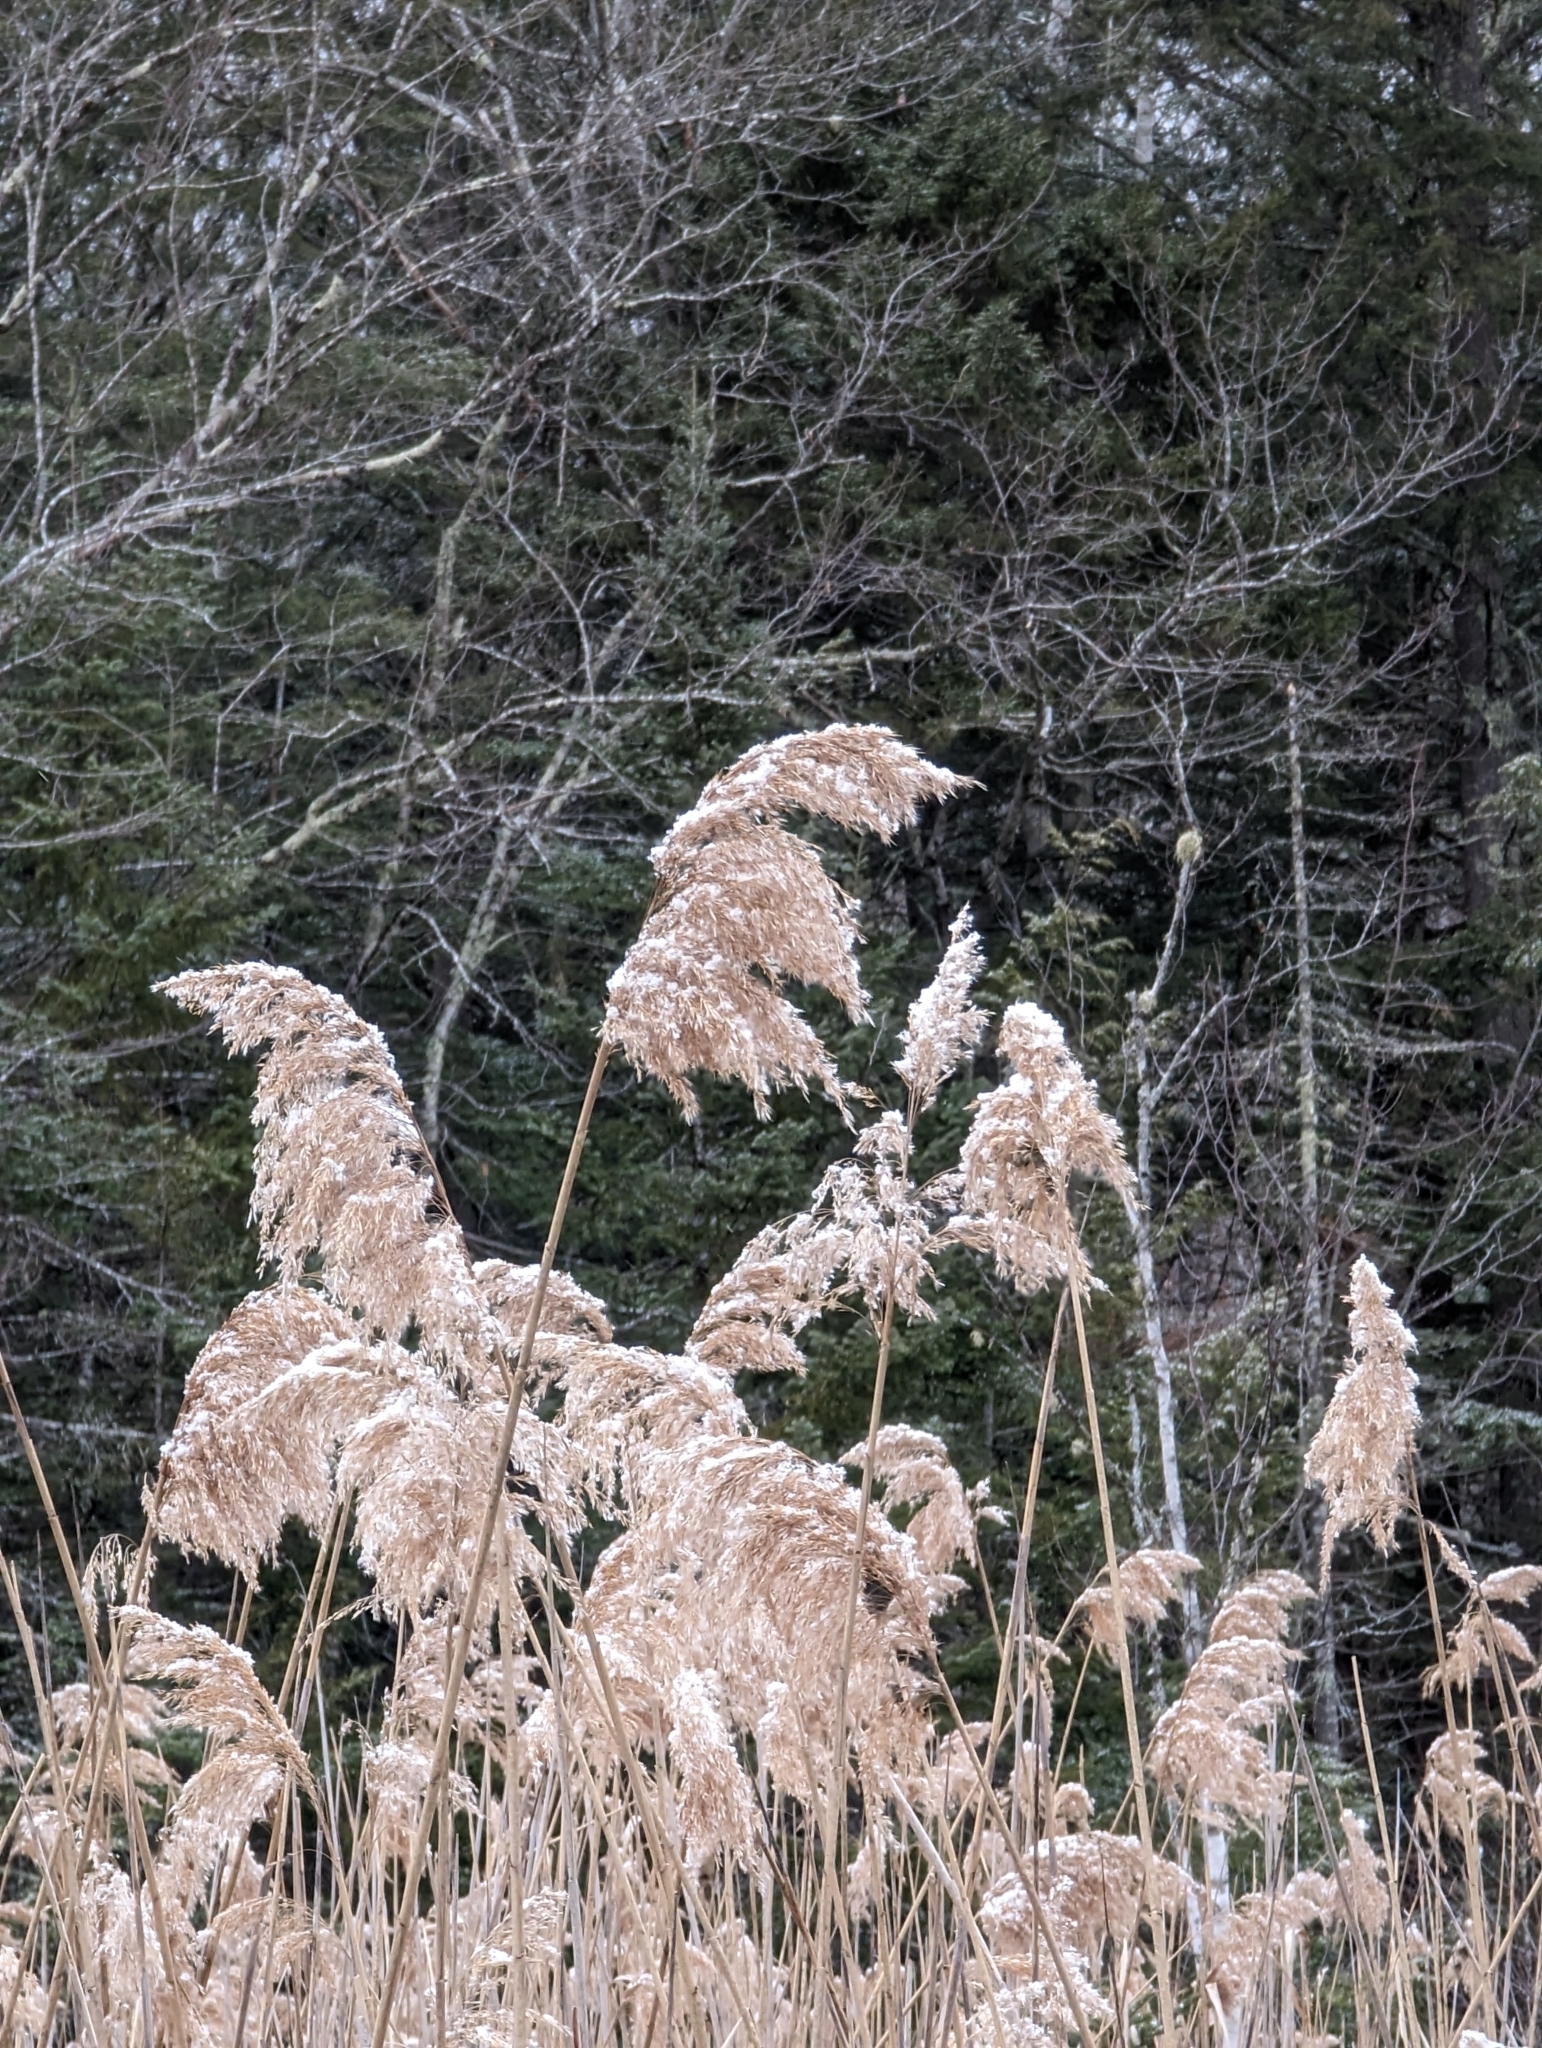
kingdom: Plantae
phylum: Tracheophyta
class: Liliopsida
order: Poales
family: Poaceae
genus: Phragmites
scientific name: Phragmites australis
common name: Common reed
